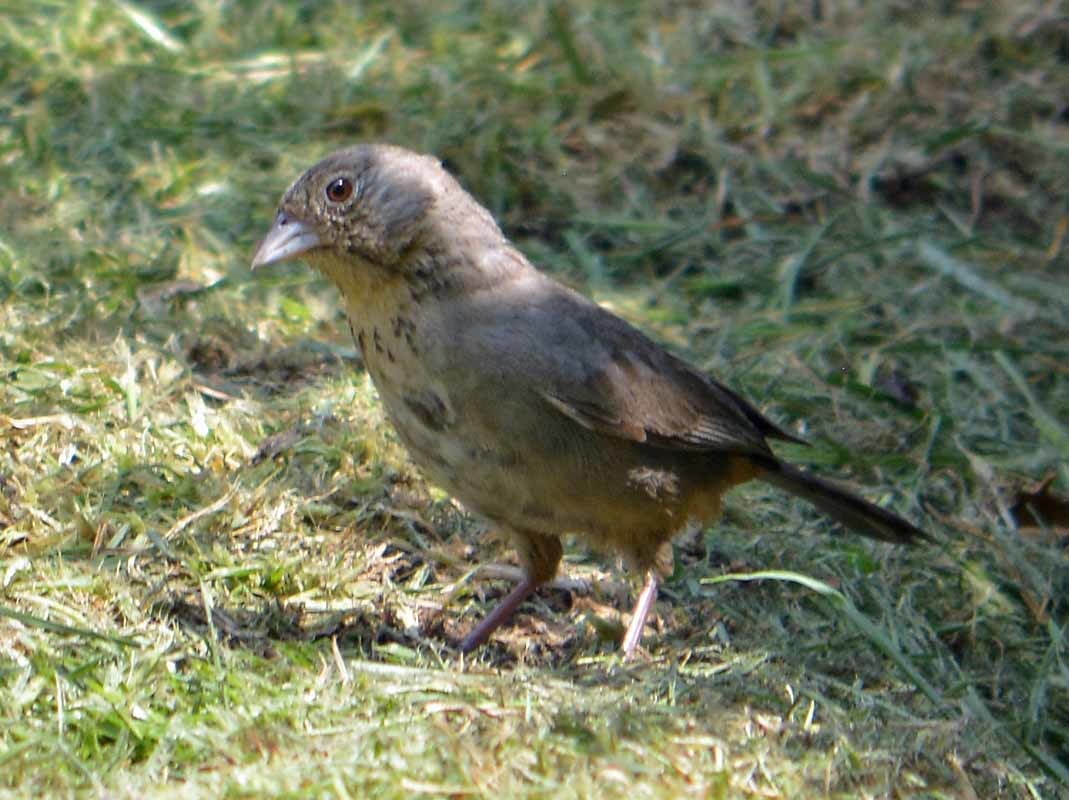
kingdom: Animalia
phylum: Chordata
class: Aves
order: Passeriformes
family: Passerellidae
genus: Melozone
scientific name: Melozone fusca
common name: Canyon towhee
